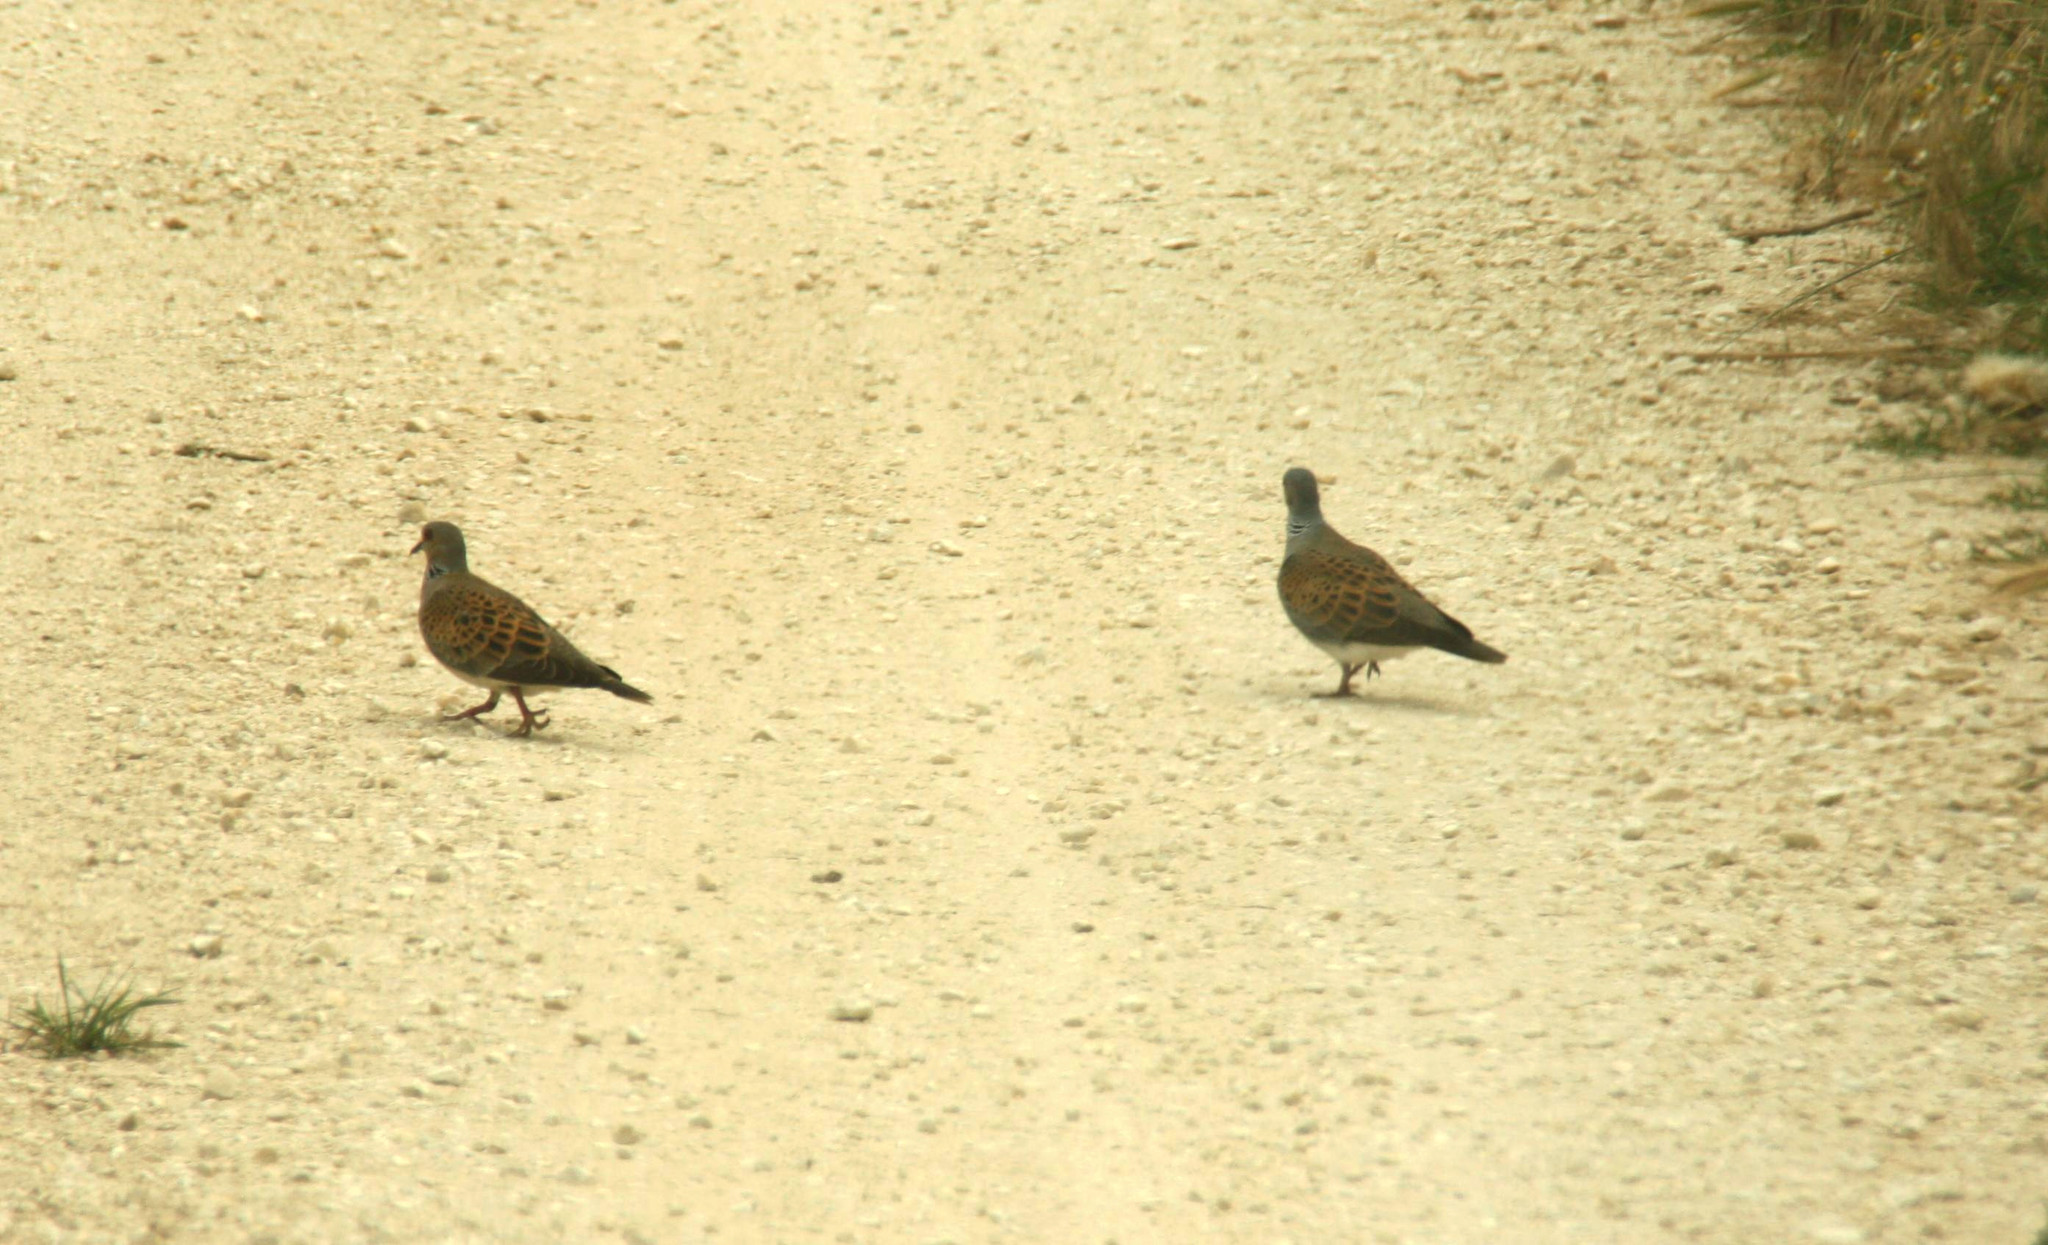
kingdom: Animalia
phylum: Chordata
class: Aves
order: Columbiformes
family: Columbidae
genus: Streptopelia
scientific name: Streptopelia turtur
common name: European turtle dove
